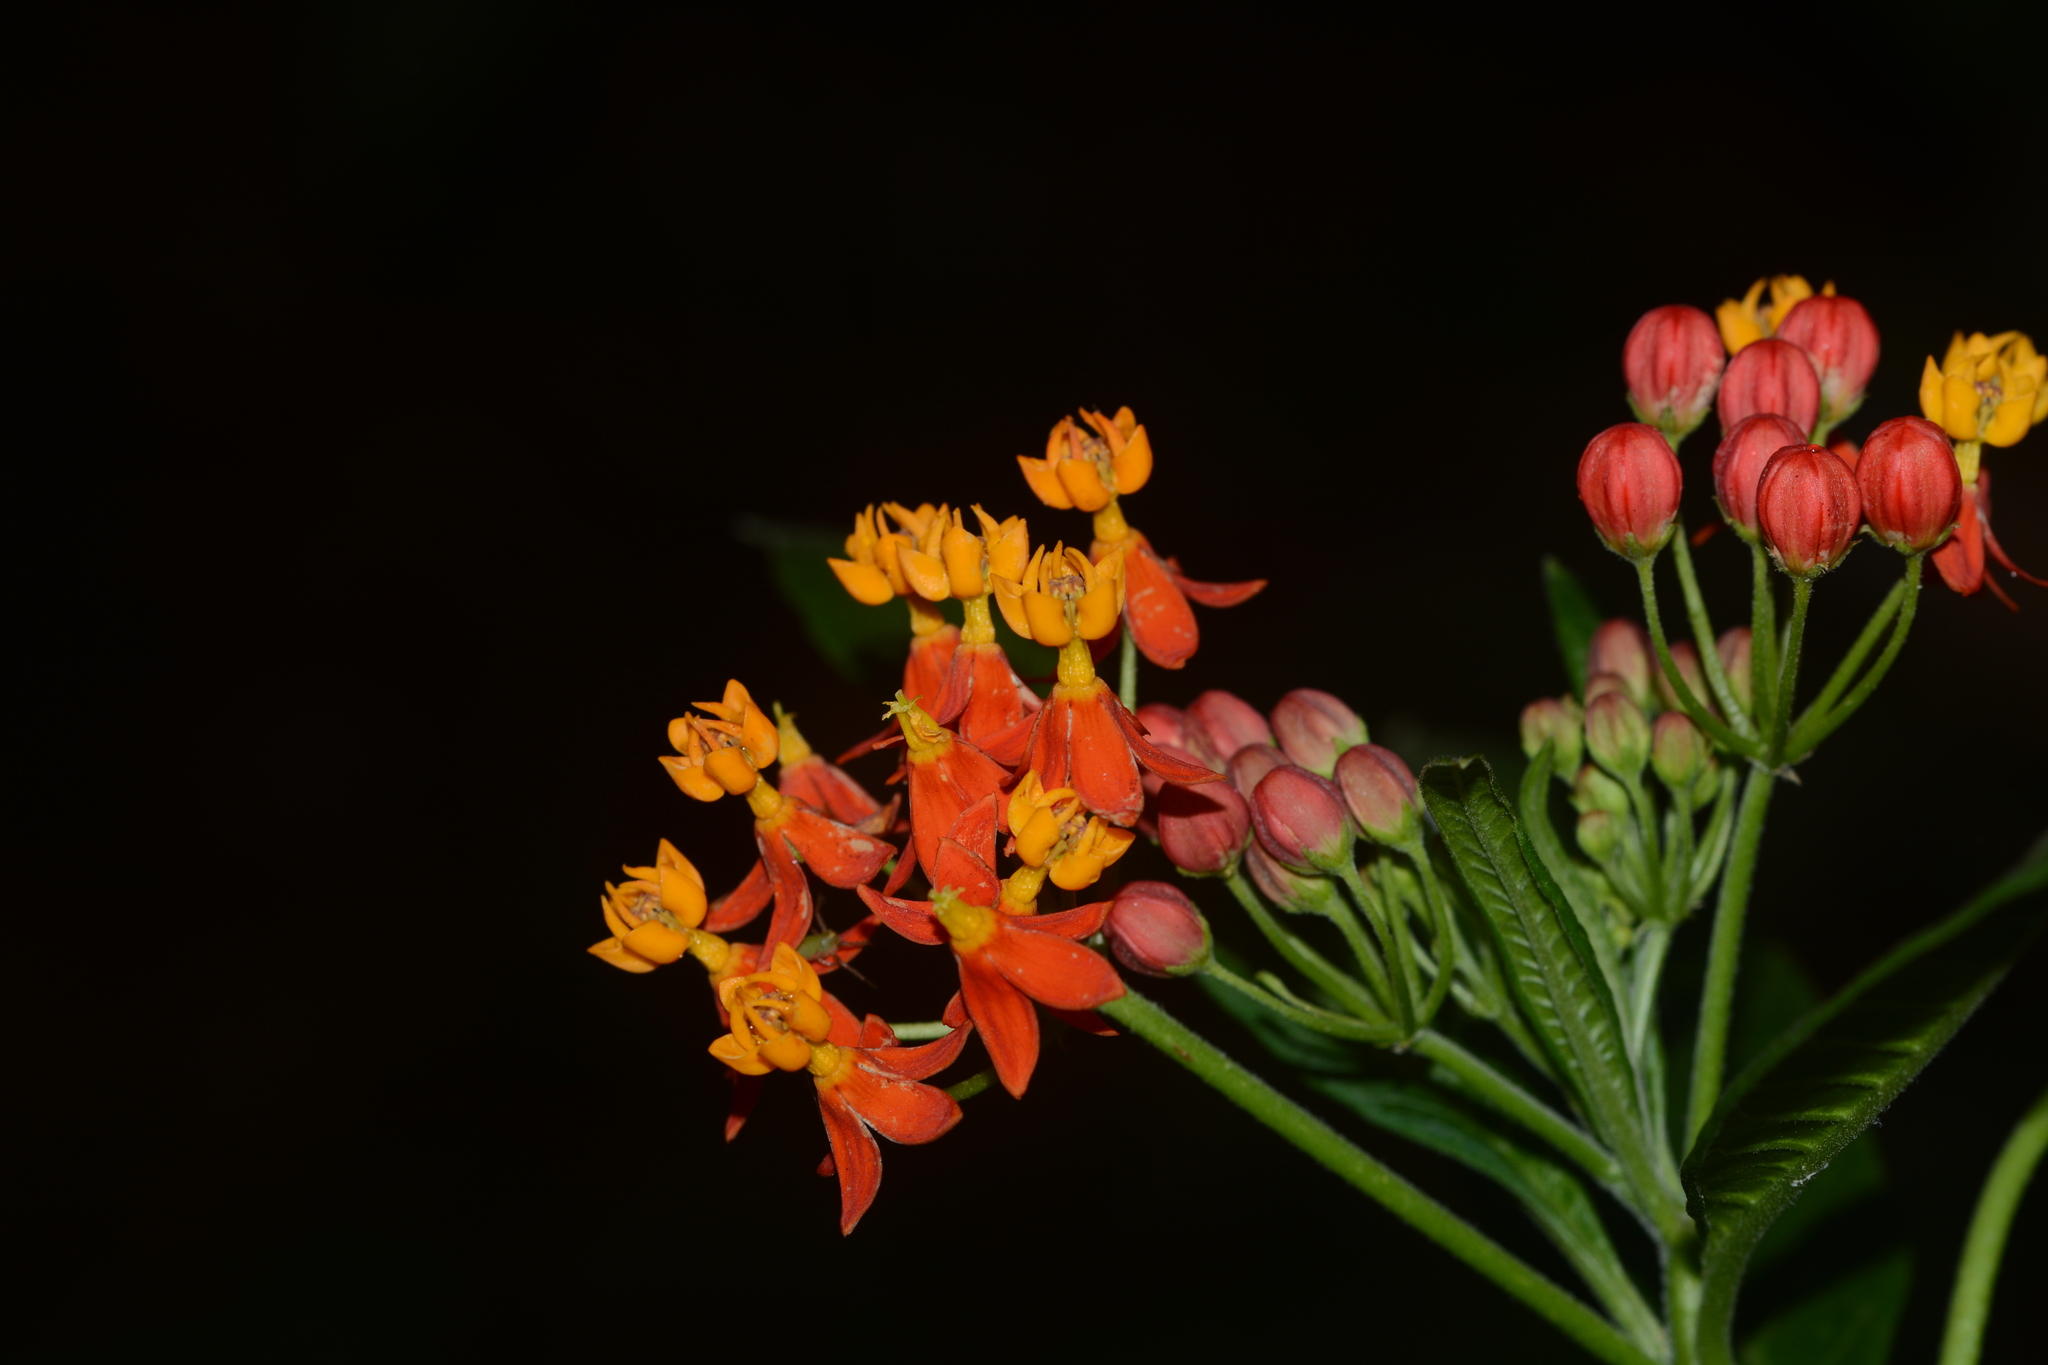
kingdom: Plantae
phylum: Tracheophyta
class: Magnoliopsida
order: Gentianales
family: Apocynaceae
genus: Asclepias
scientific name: Asclepias curassavica
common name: Bloodflower
